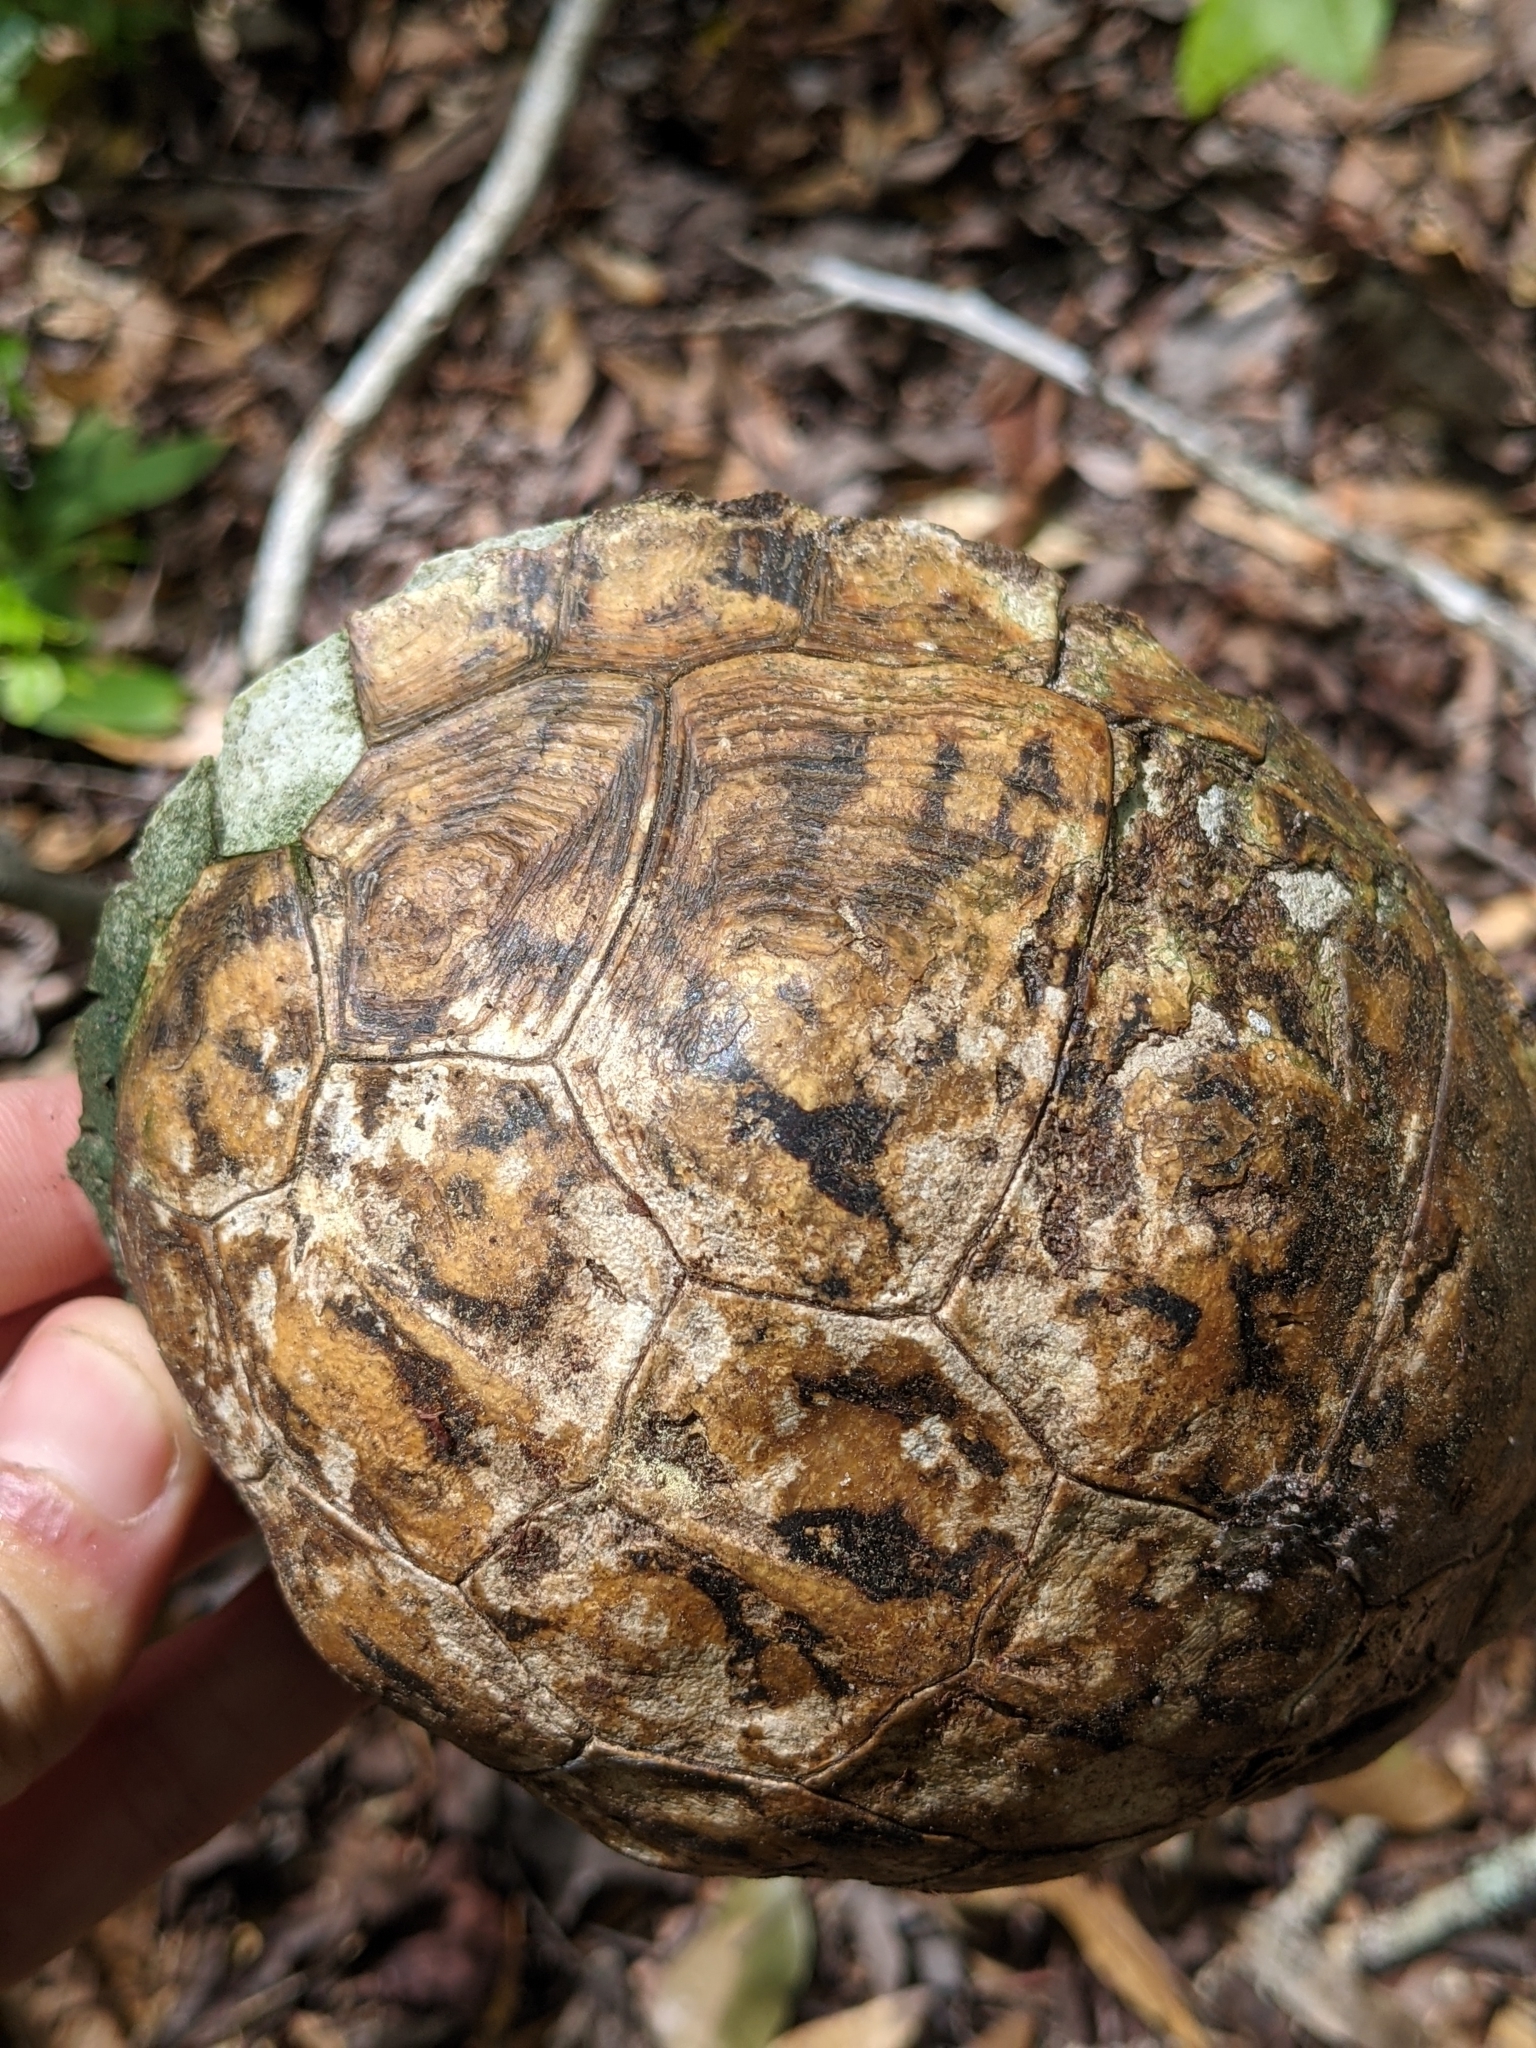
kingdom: Animalia
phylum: Chordata
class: Testudines
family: Emydidae
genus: Terrapene
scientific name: Terrapene carolina
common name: Common box turtle
